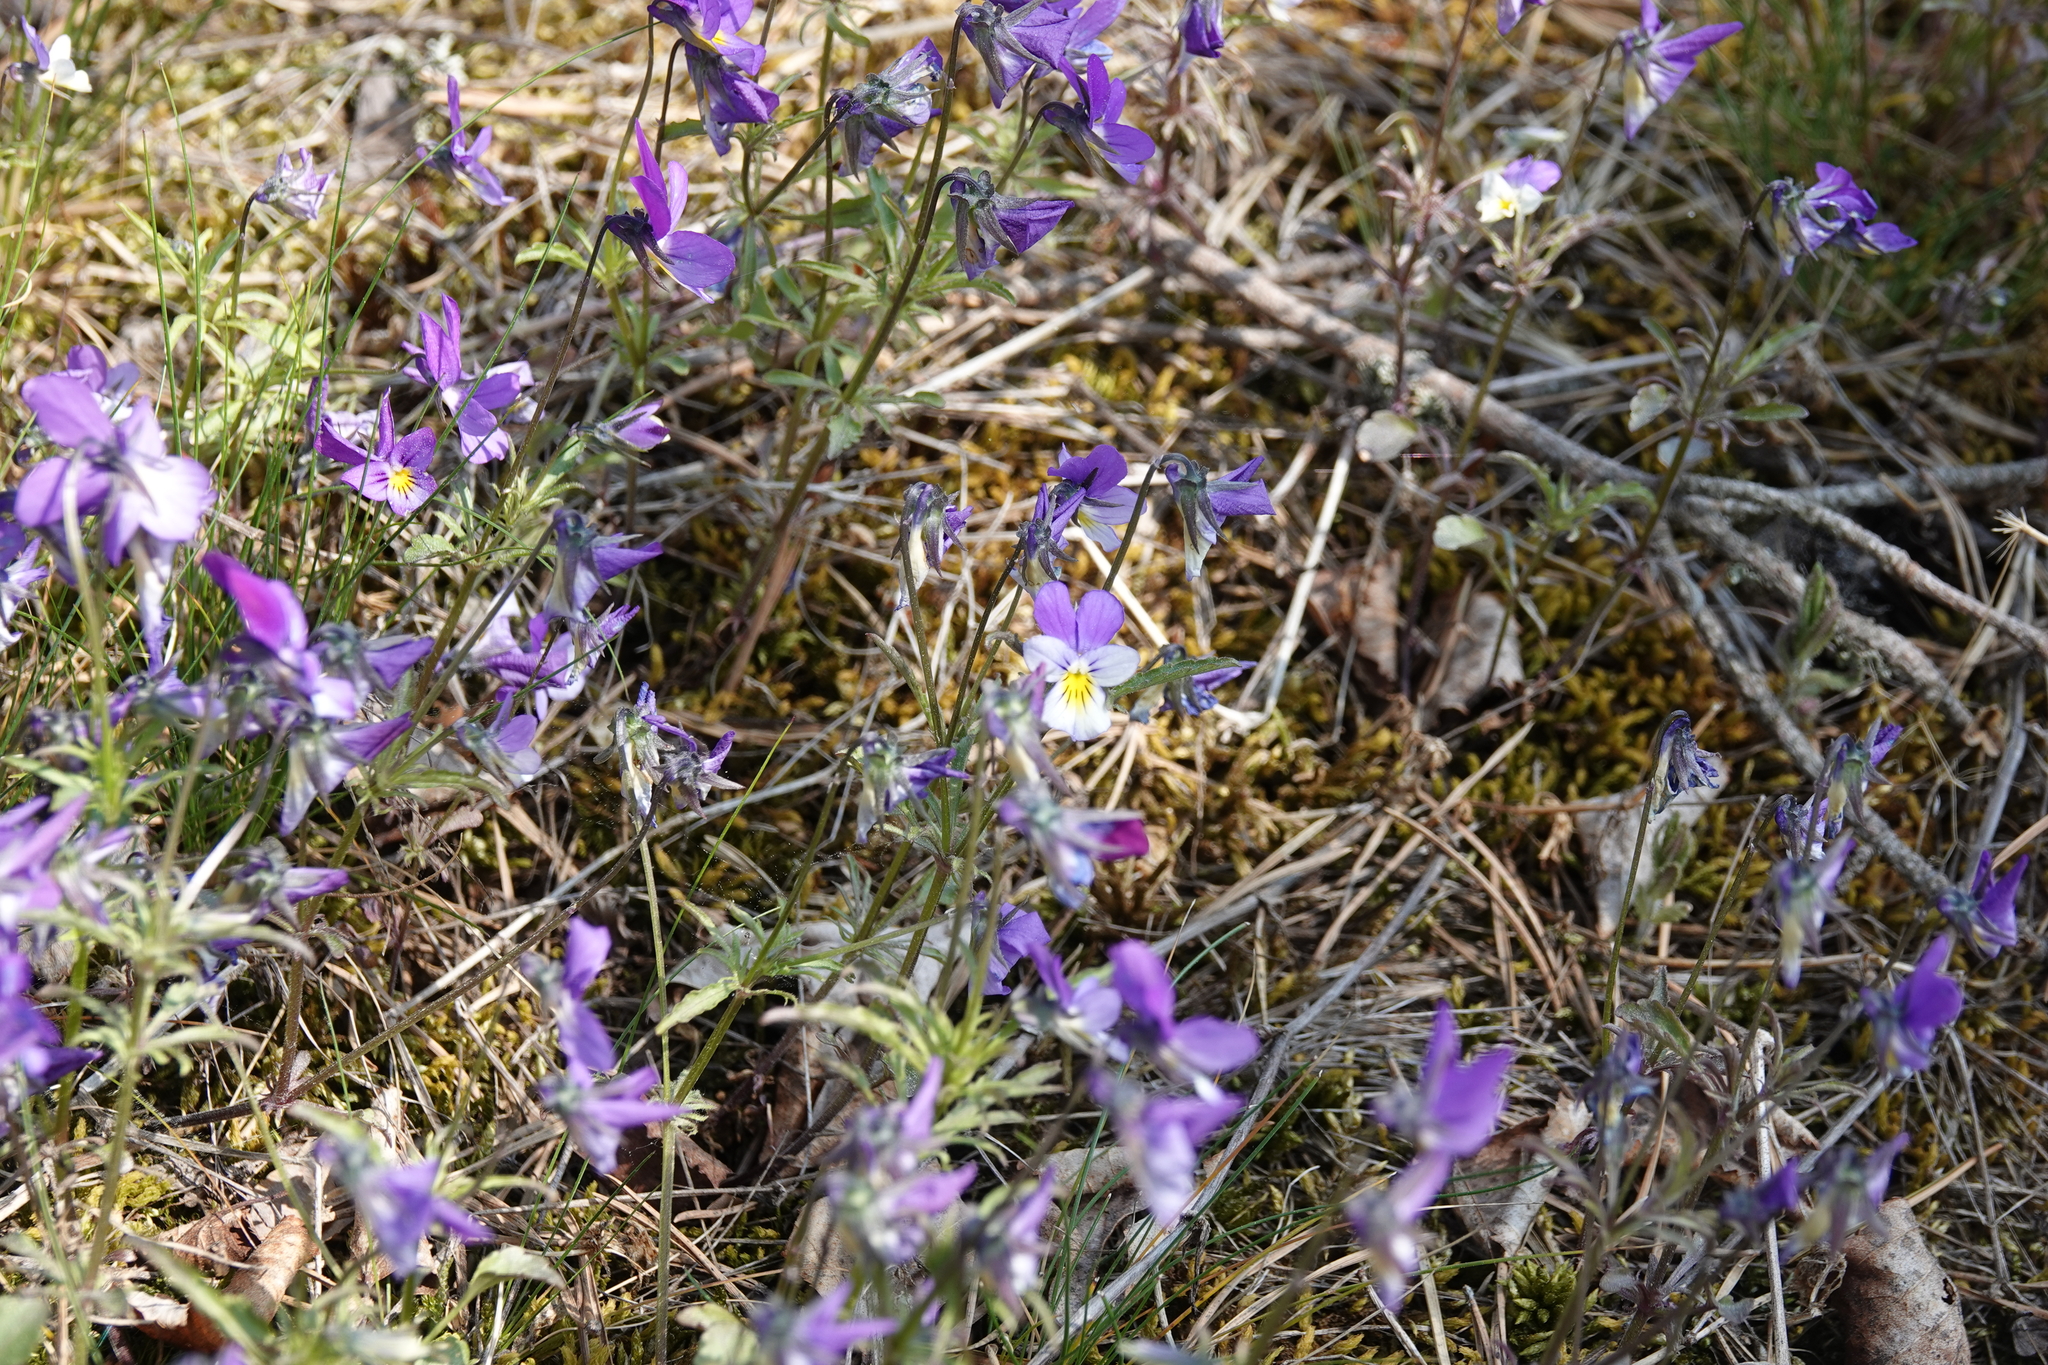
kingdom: Plantae
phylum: Tracheophyta
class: Magnoliopsida
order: Malpighiales
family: Violaceae
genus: Viola
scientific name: Viola tricolor
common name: Pansy
